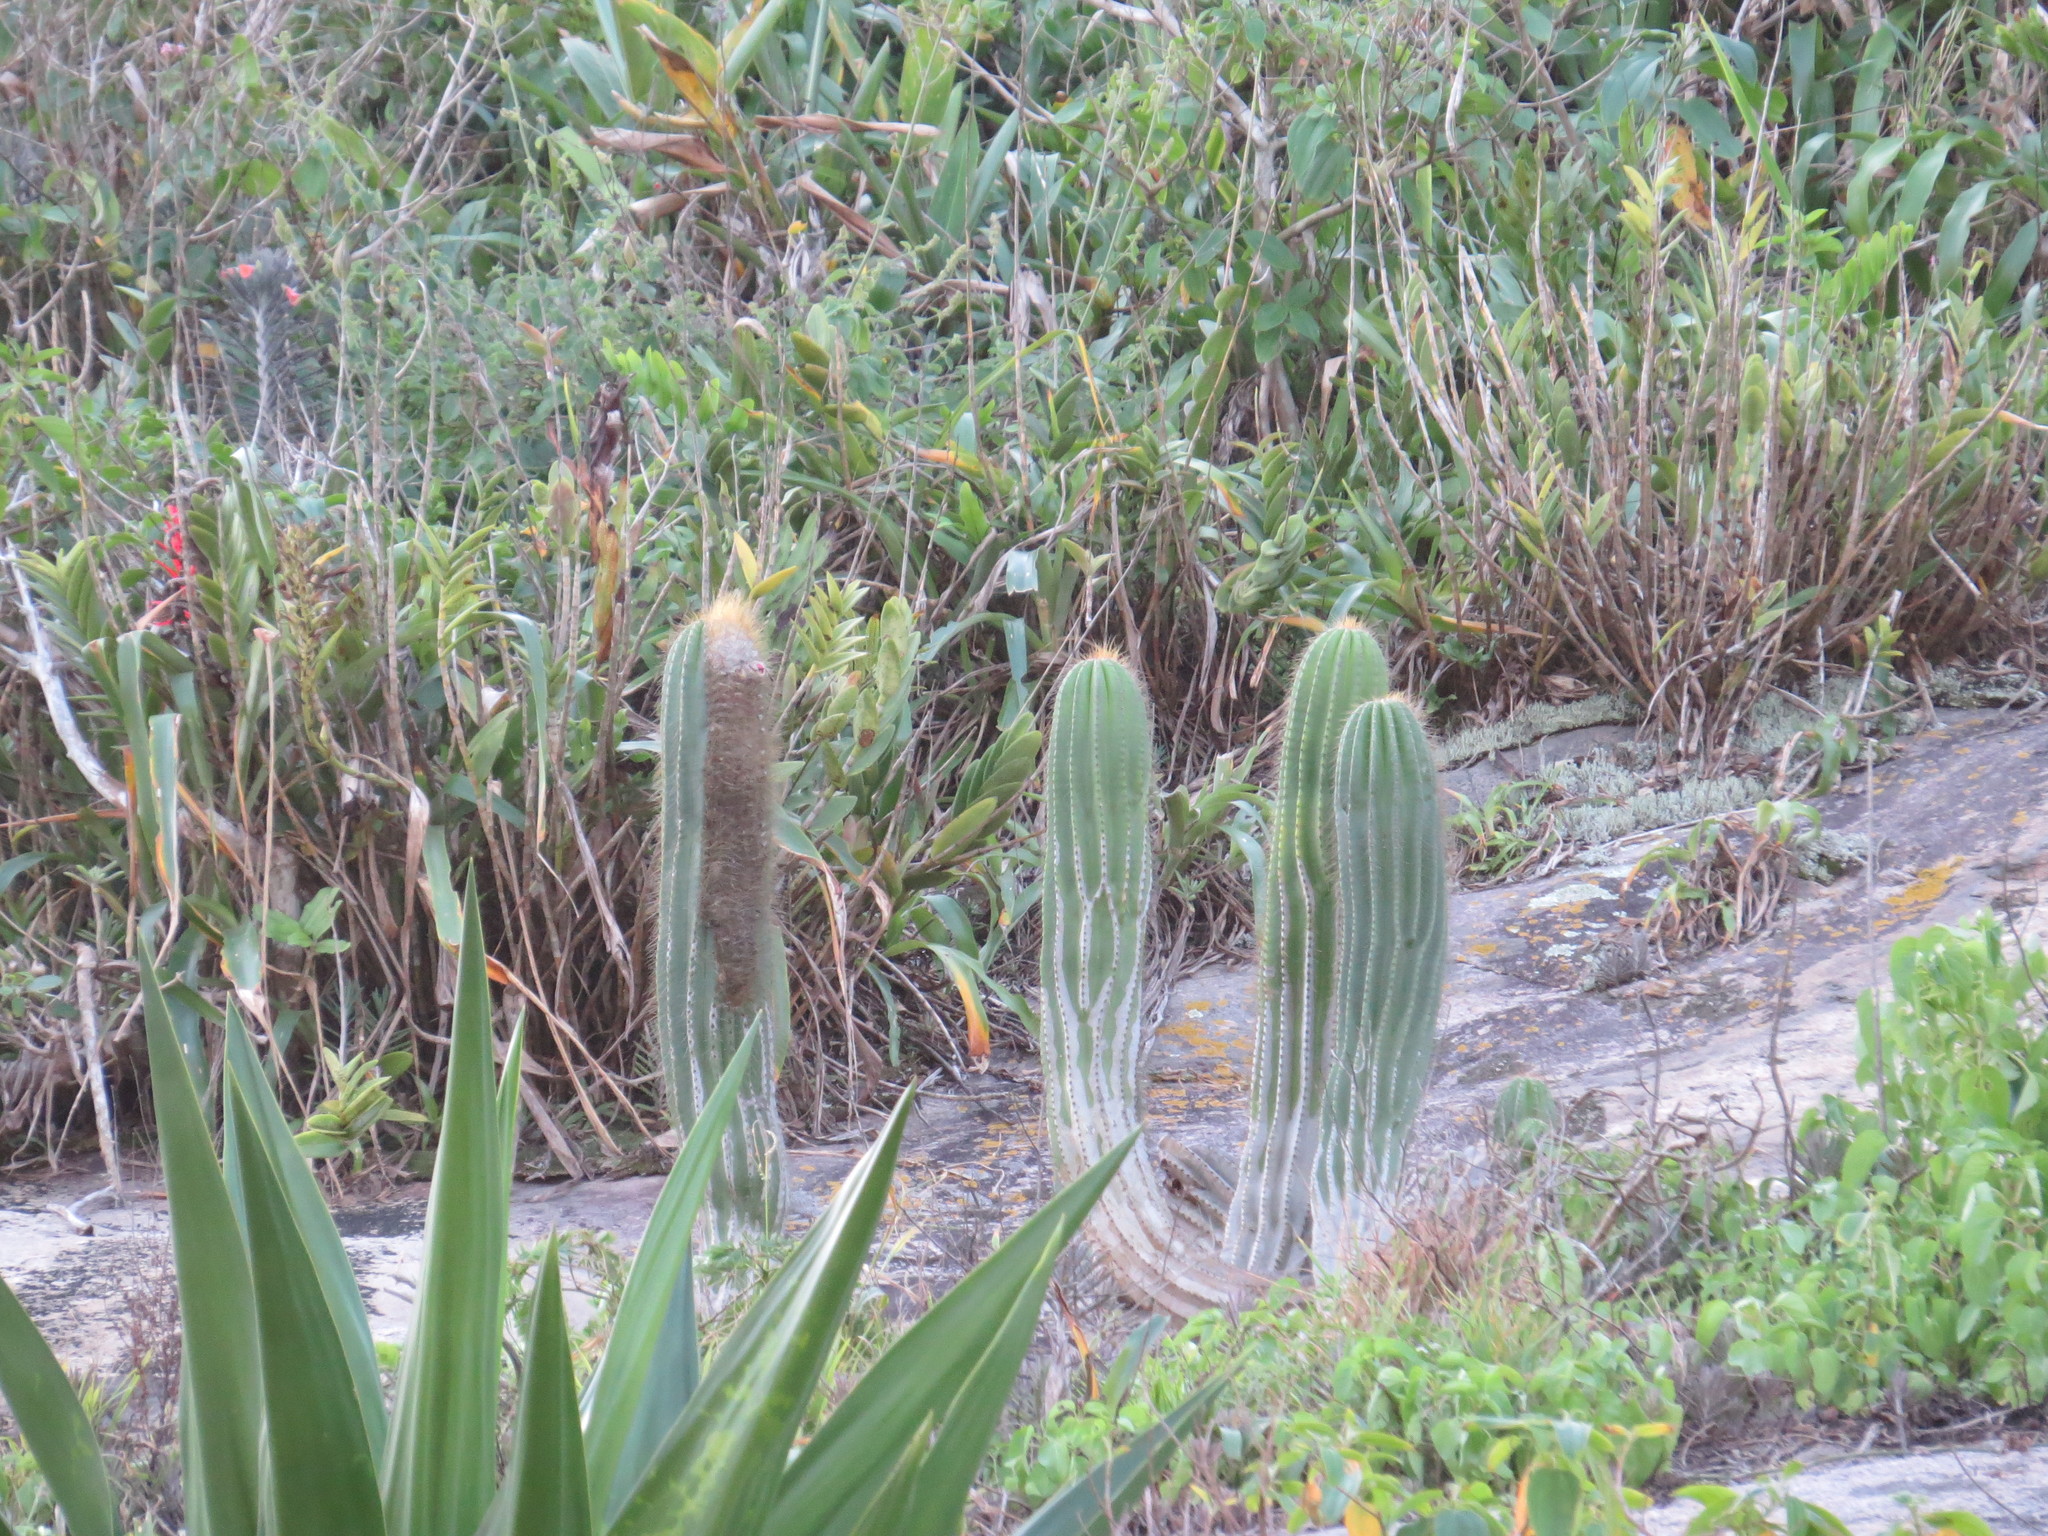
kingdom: Plantae
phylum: Tracheophyta
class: Magnoliopsida
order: Caryophyllales
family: Cactaceae
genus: Coleocephalocereus
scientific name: Coleocephalocereus fluminensis
